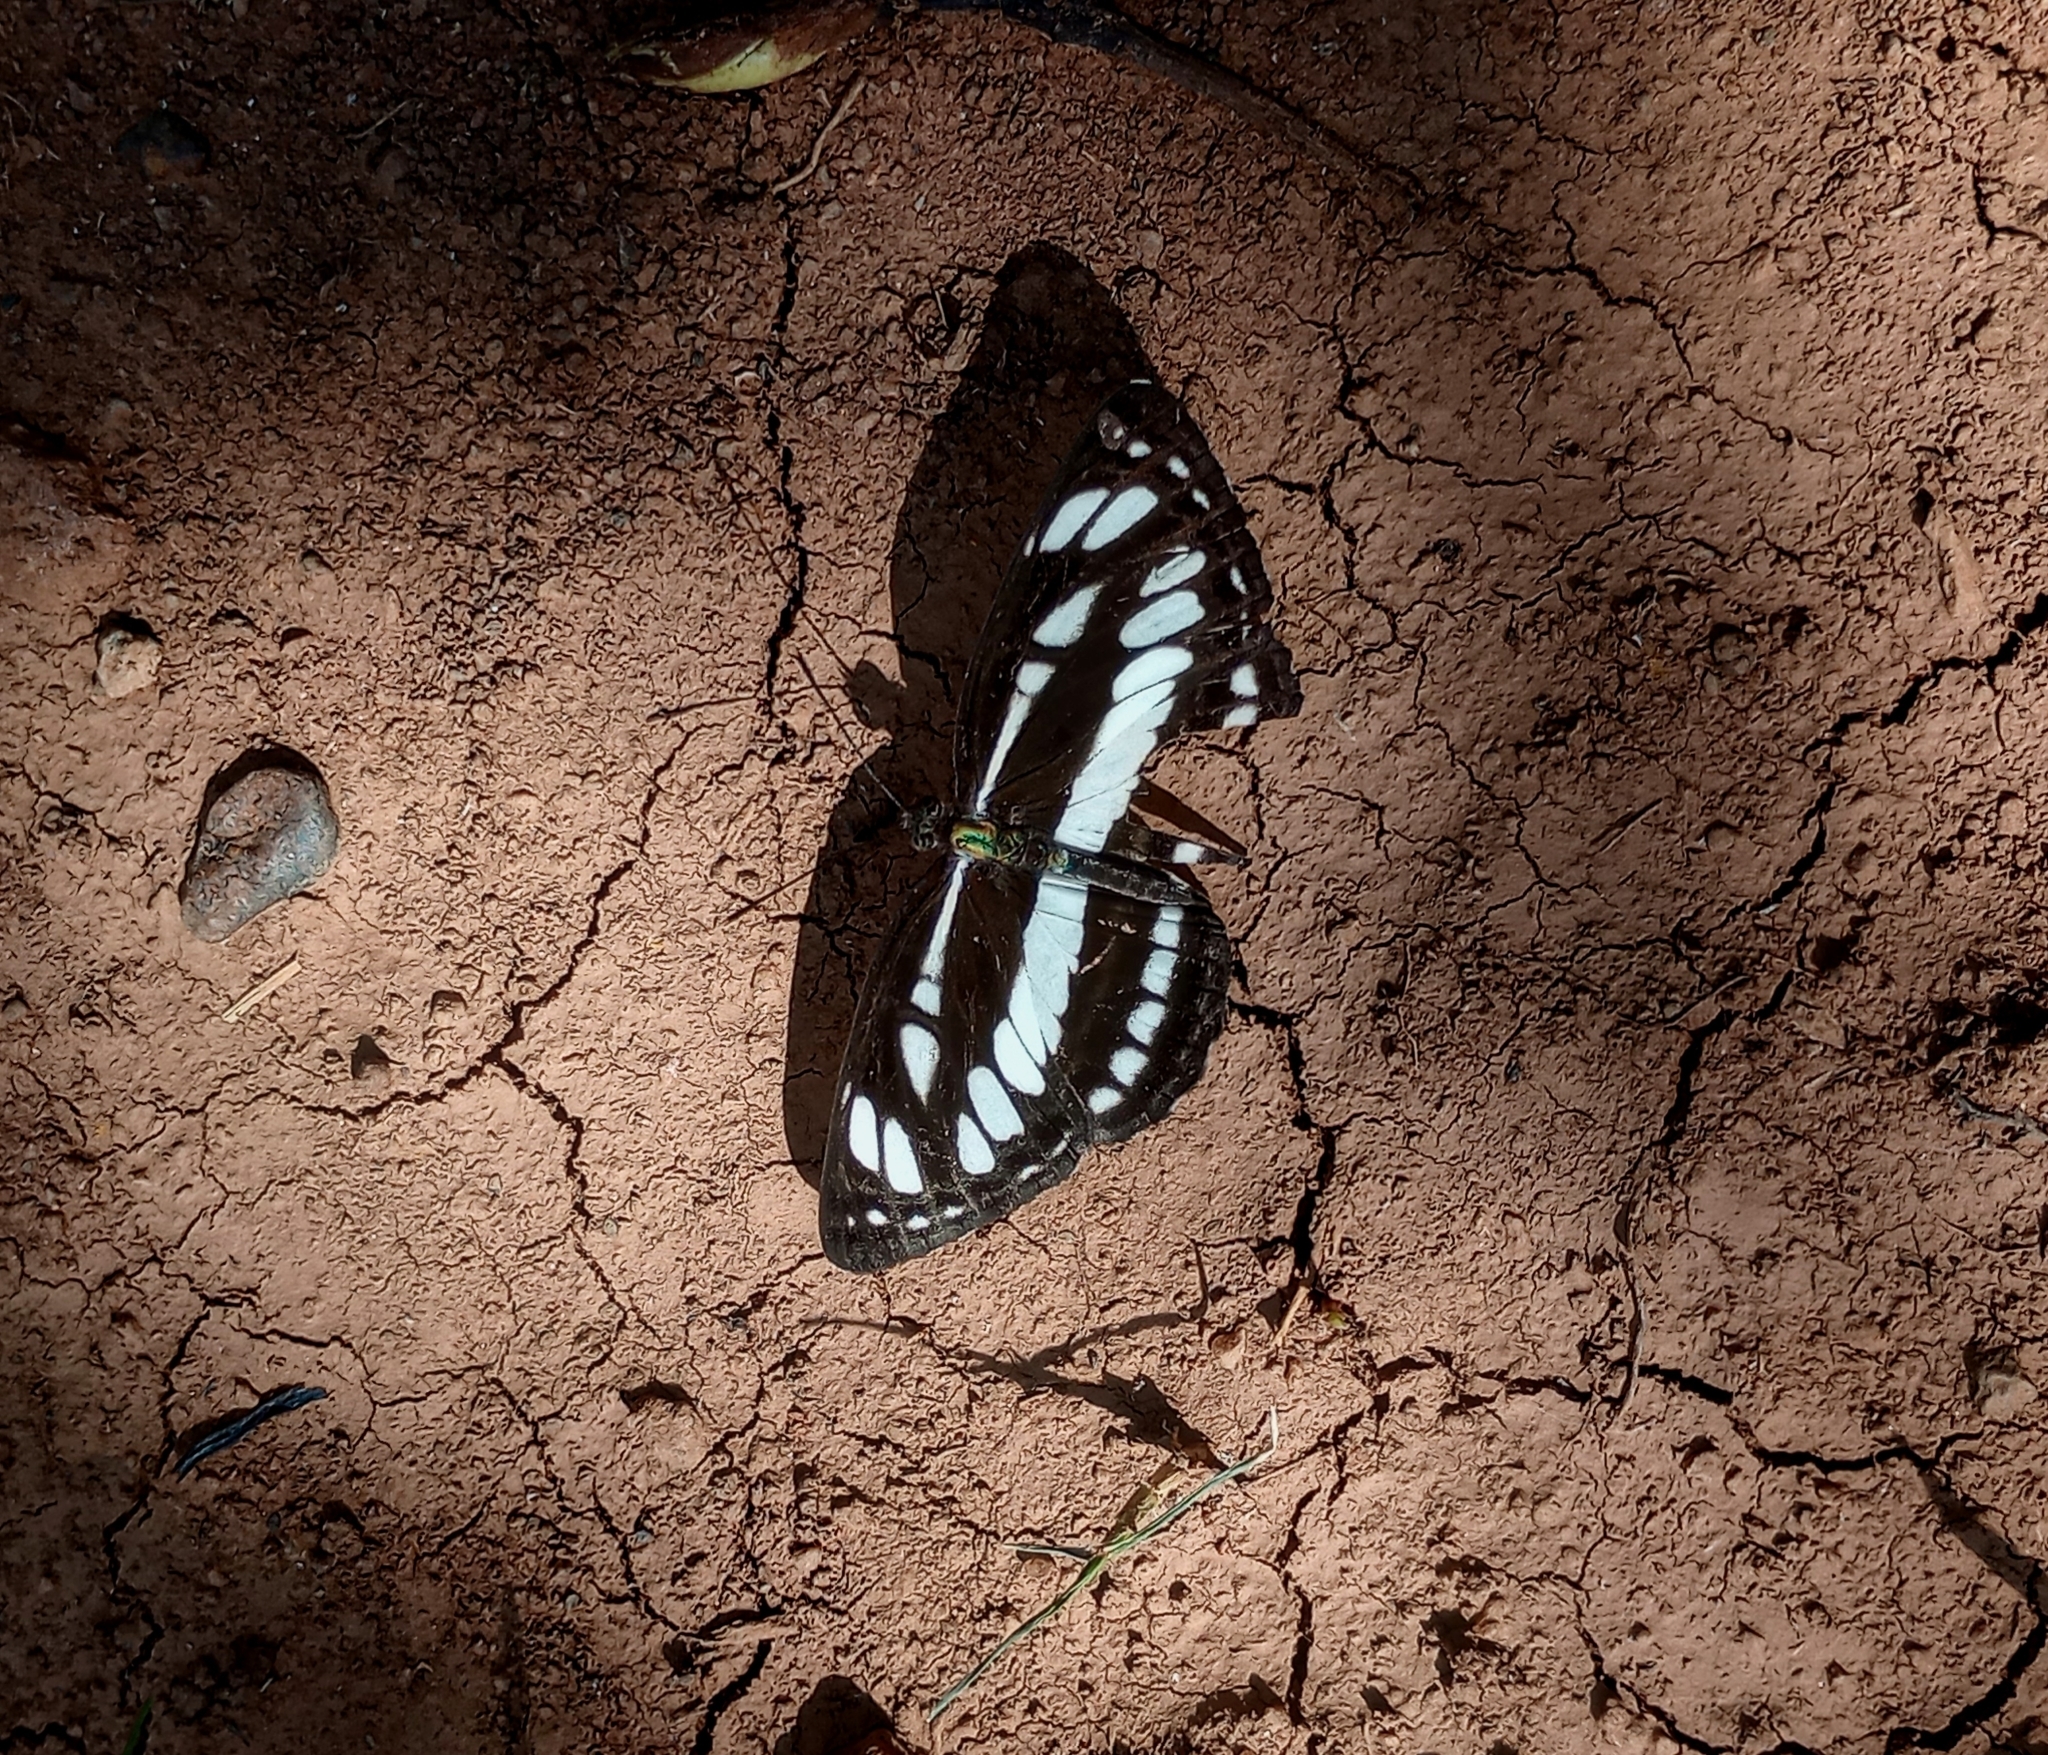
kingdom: Animalia
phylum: Arthropoda
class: Insecta
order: Lepidoptera
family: Nymphalidae
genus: Neptis
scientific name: Neptis hylas
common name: Common sailer
